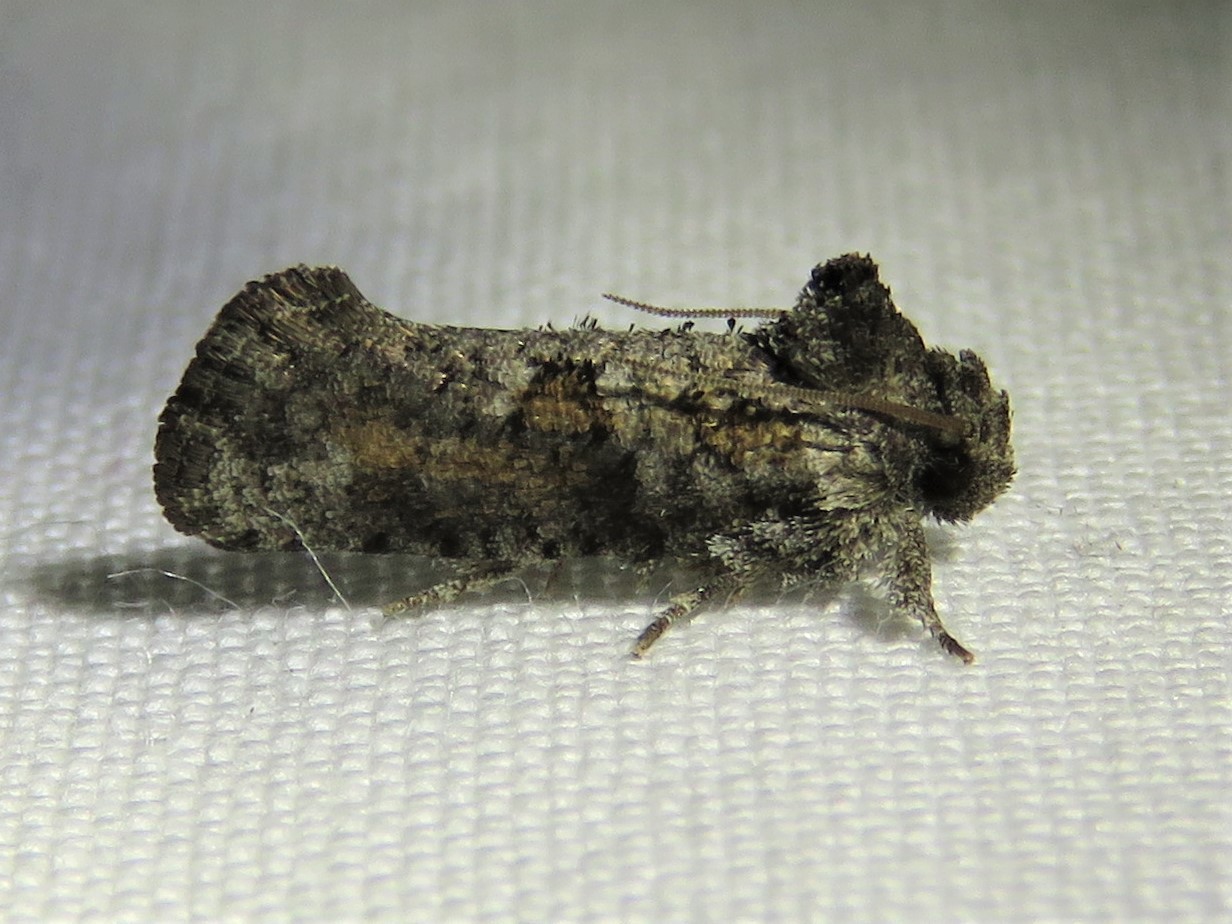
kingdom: Animalia
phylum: Arthropoda
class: Insecta
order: Lepidoptera
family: Tineidae
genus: Acrolophus
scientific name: Acrolophus piger
